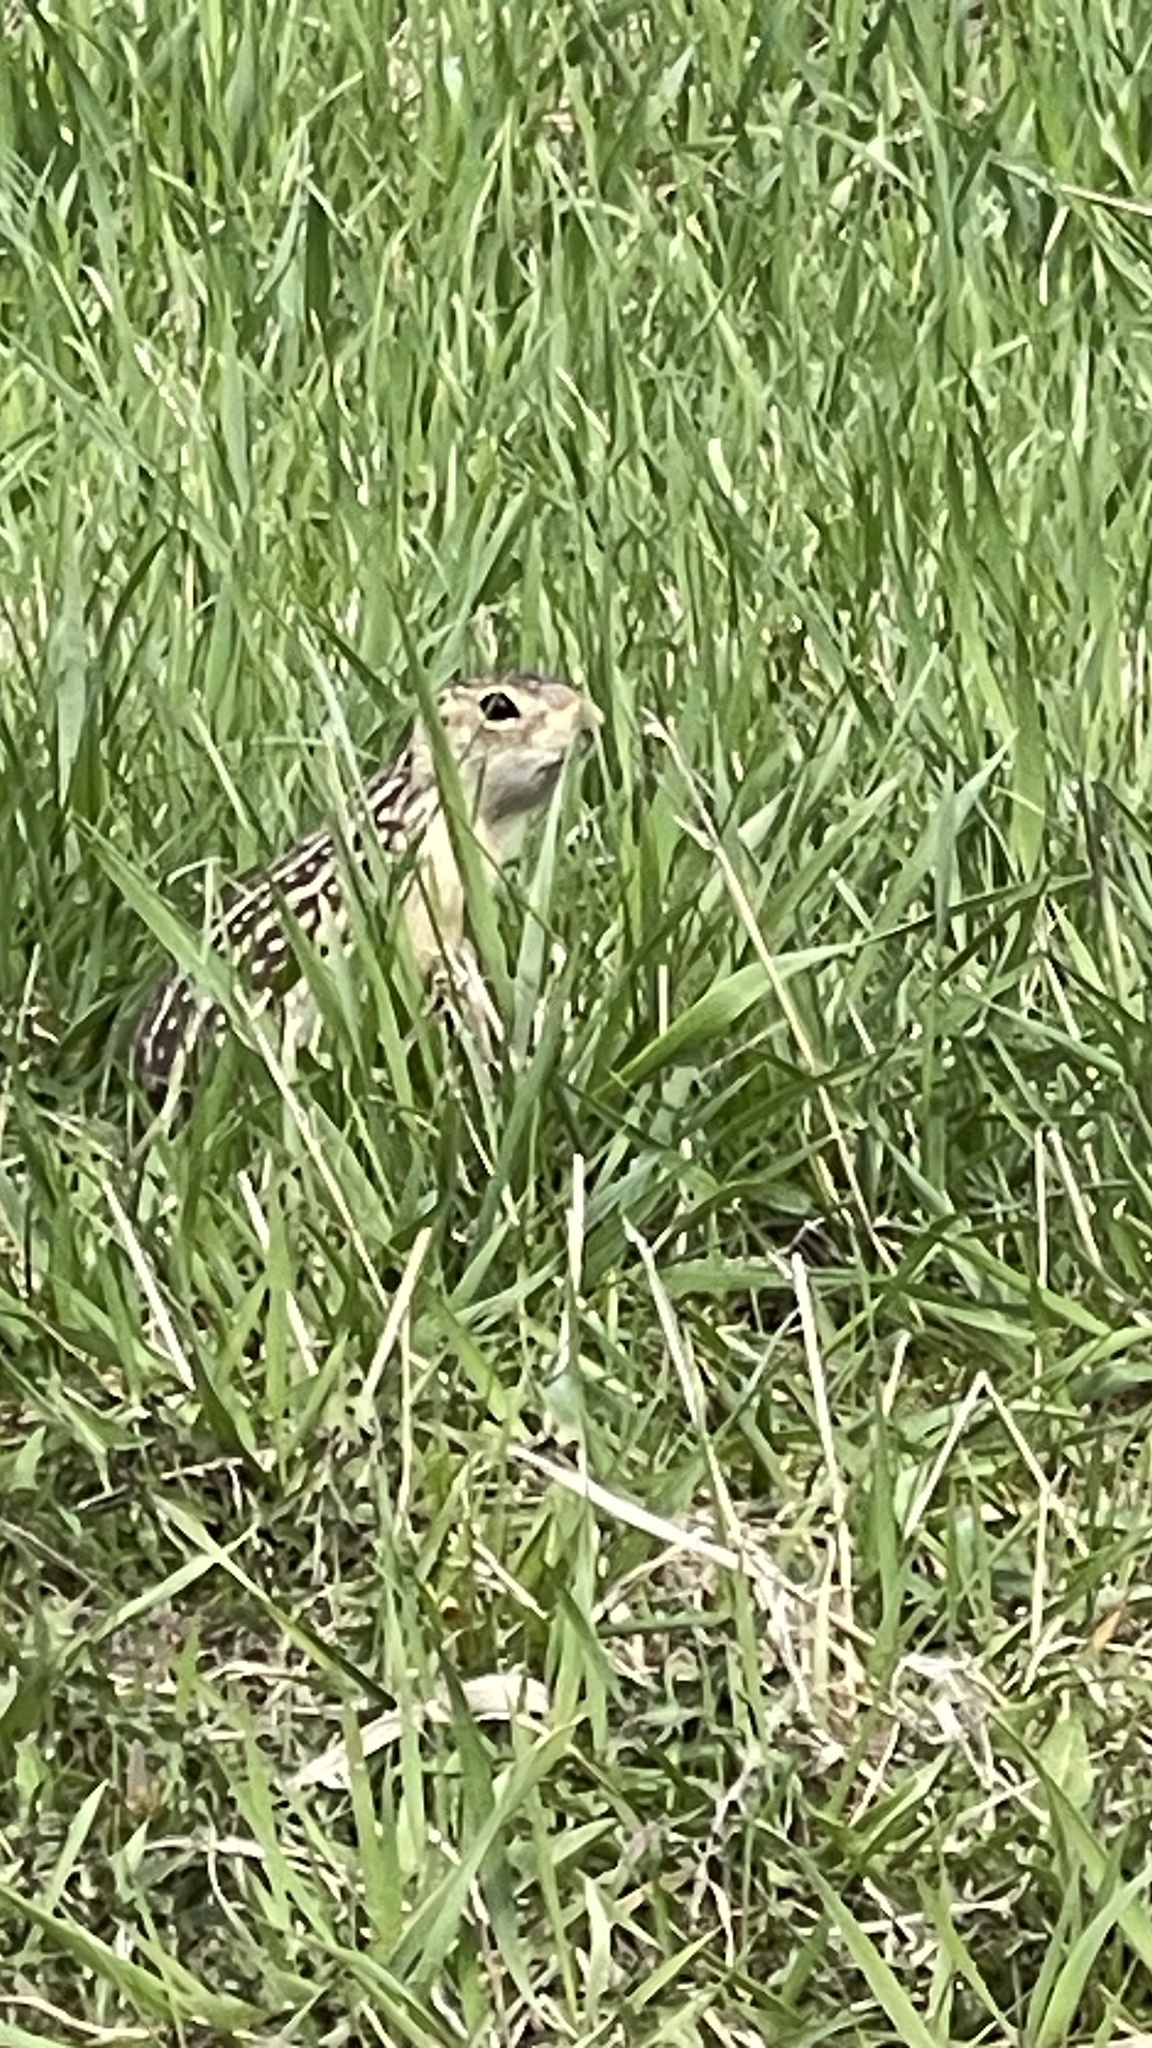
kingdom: Animalia
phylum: Chordata
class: Mammalia
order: Rodentia
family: Sciuridae
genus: Ictidomys
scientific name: Ictidomys tridecemlineatus
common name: Thirteen-lined ground squirrel
